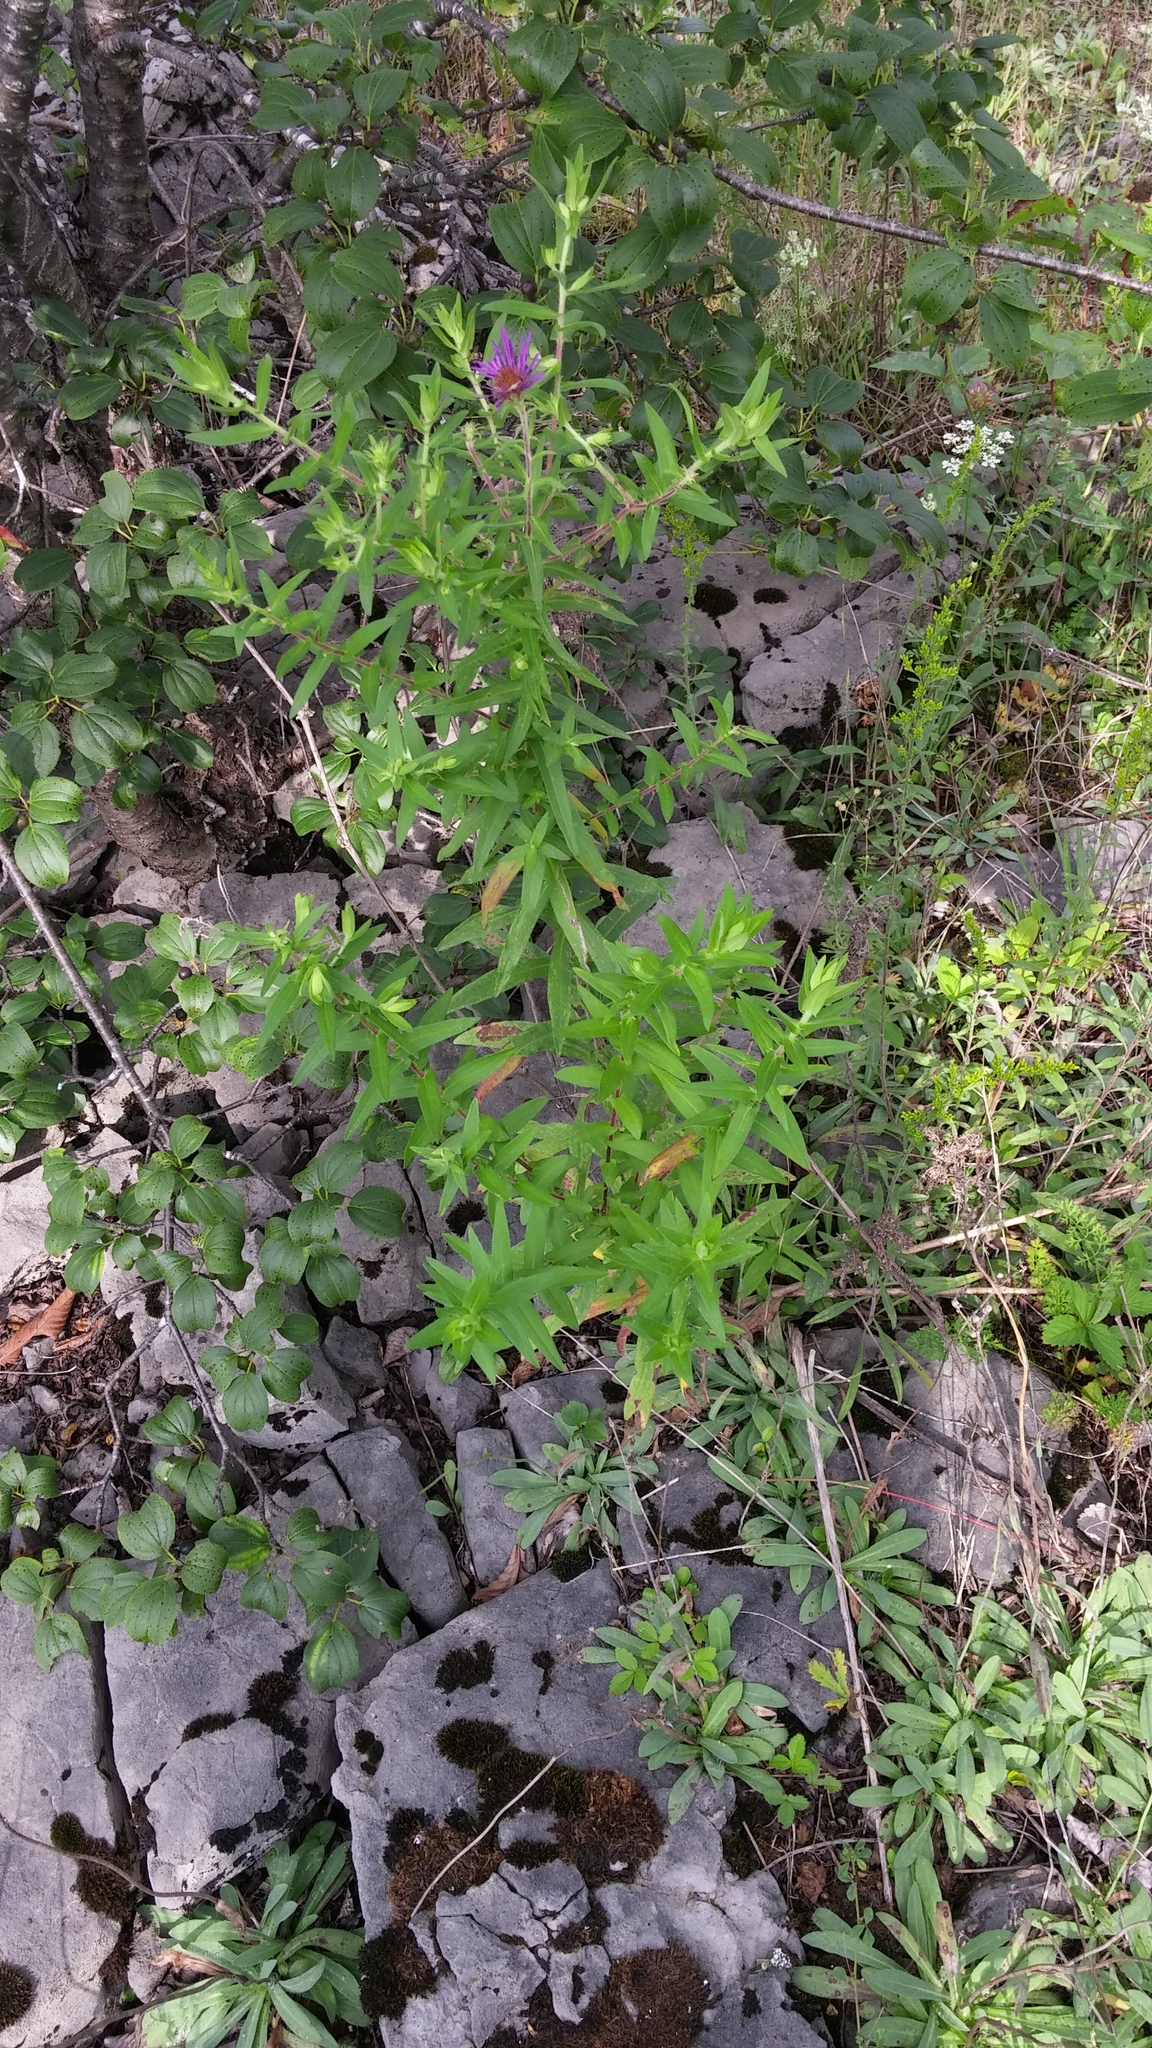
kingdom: Plantae
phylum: Tracheophyta
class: Magnoliopsida
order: Asterales
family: Asteraceae
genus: Symphyotrichum
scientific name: Symphyotrichum novae-angliae
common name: Michaelmas daisy
